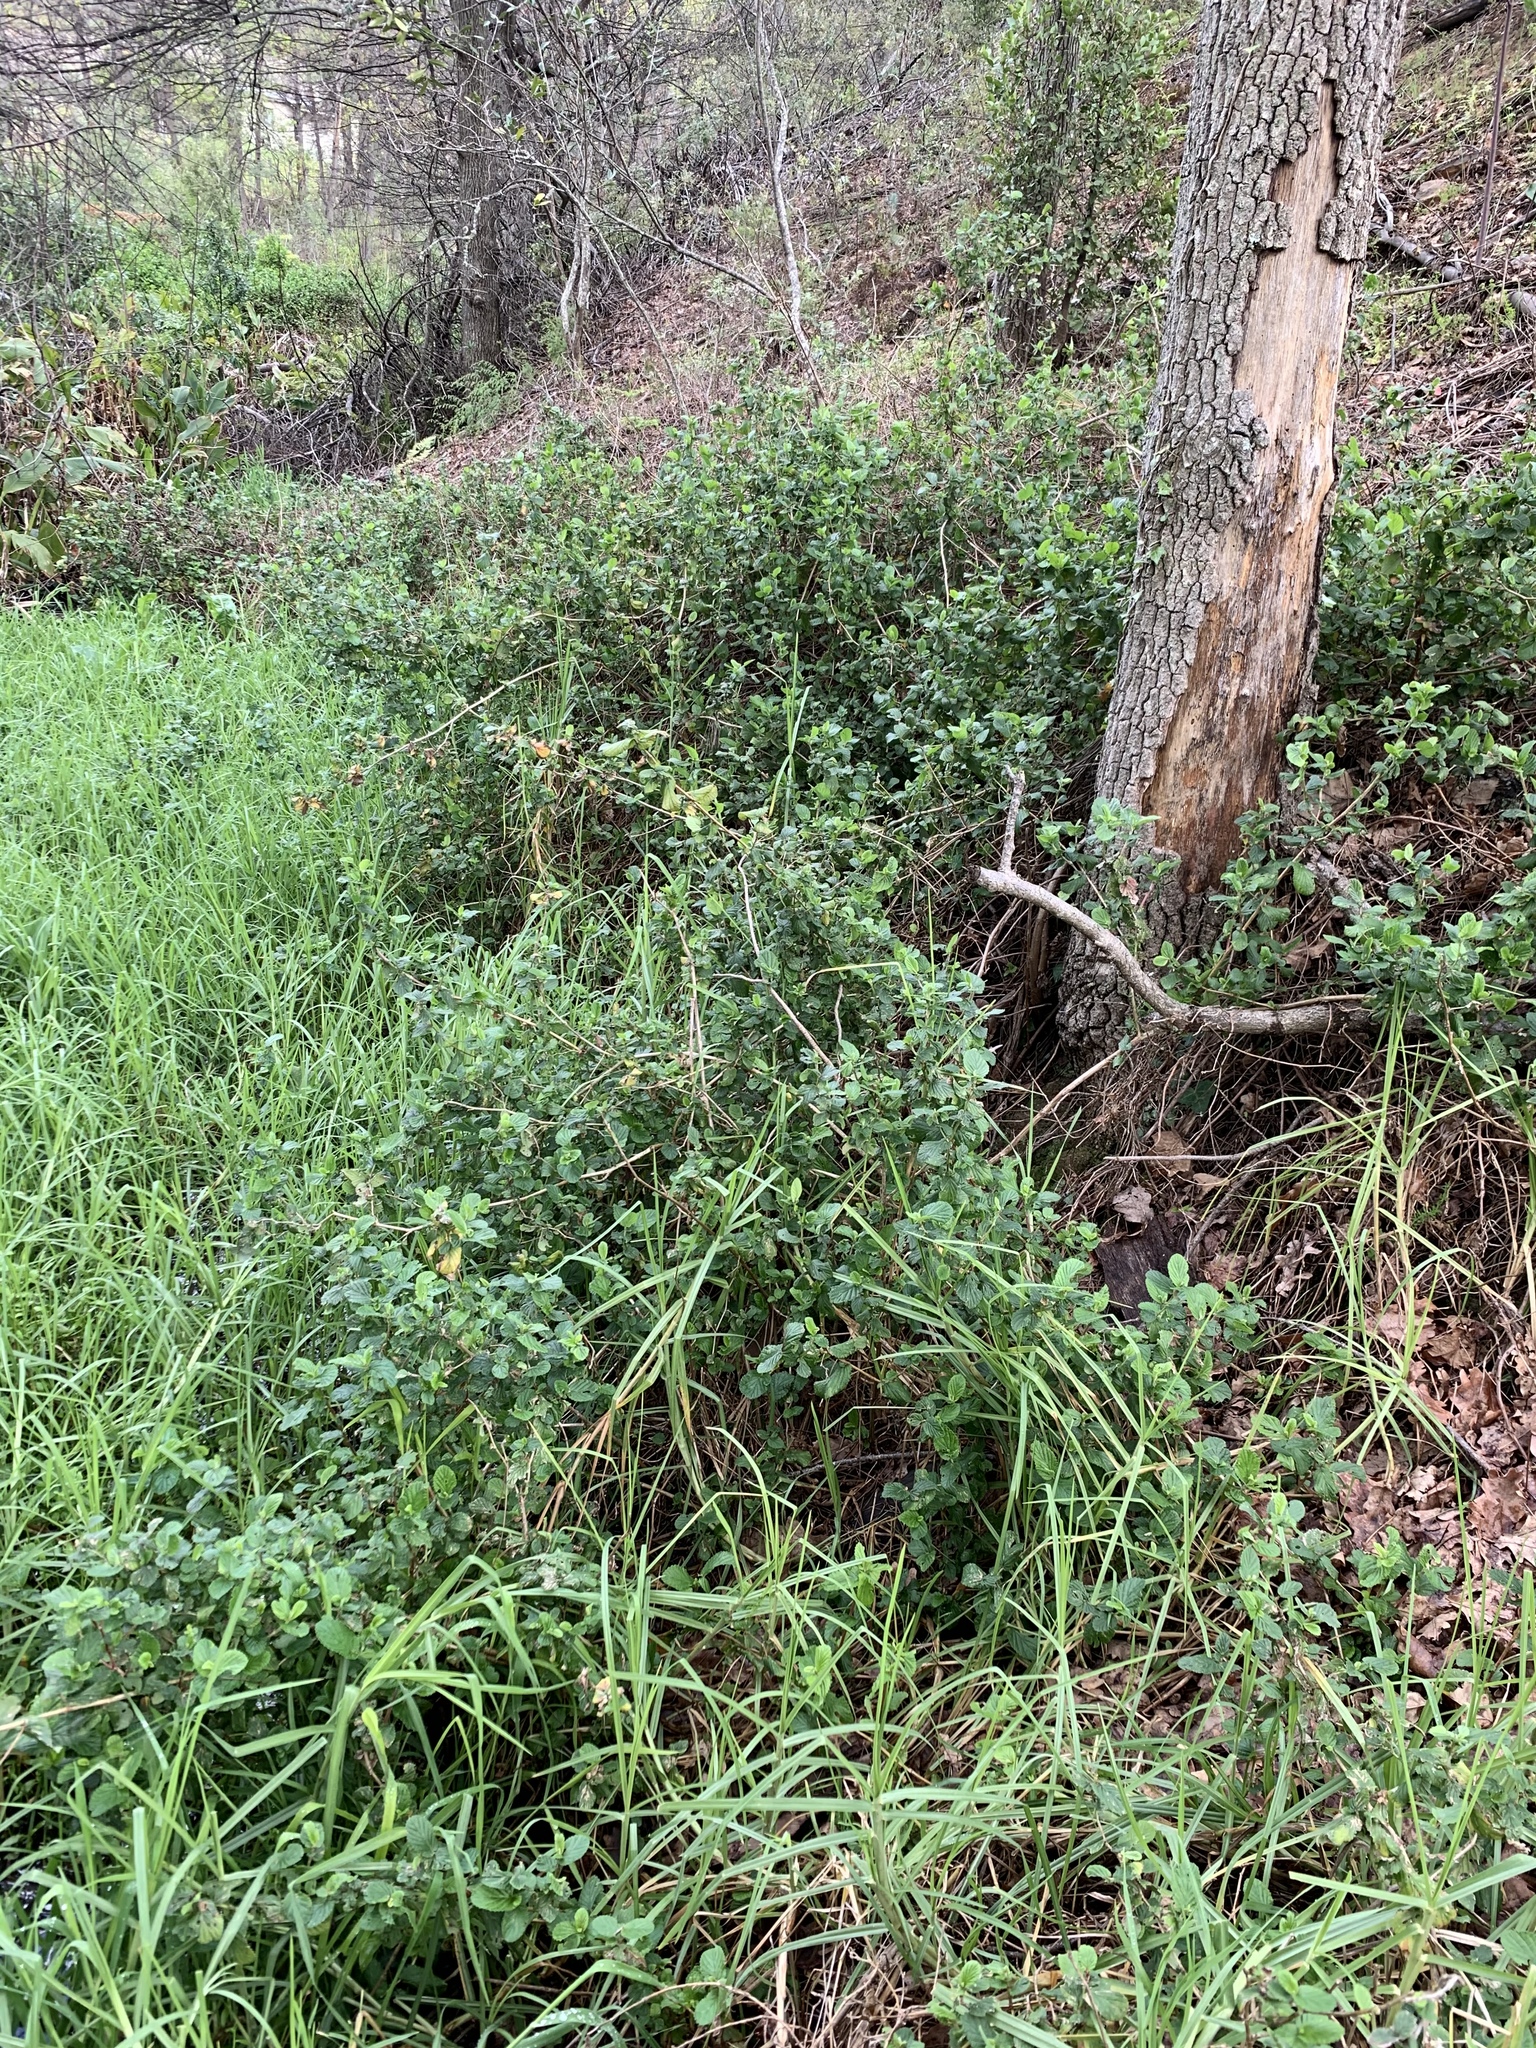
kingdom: Plantae
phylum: Tracheophyta
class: Magnoliopsida
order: Rosales
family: Rosaceae
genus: Cliffortia
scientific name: Cliffortia odorata
